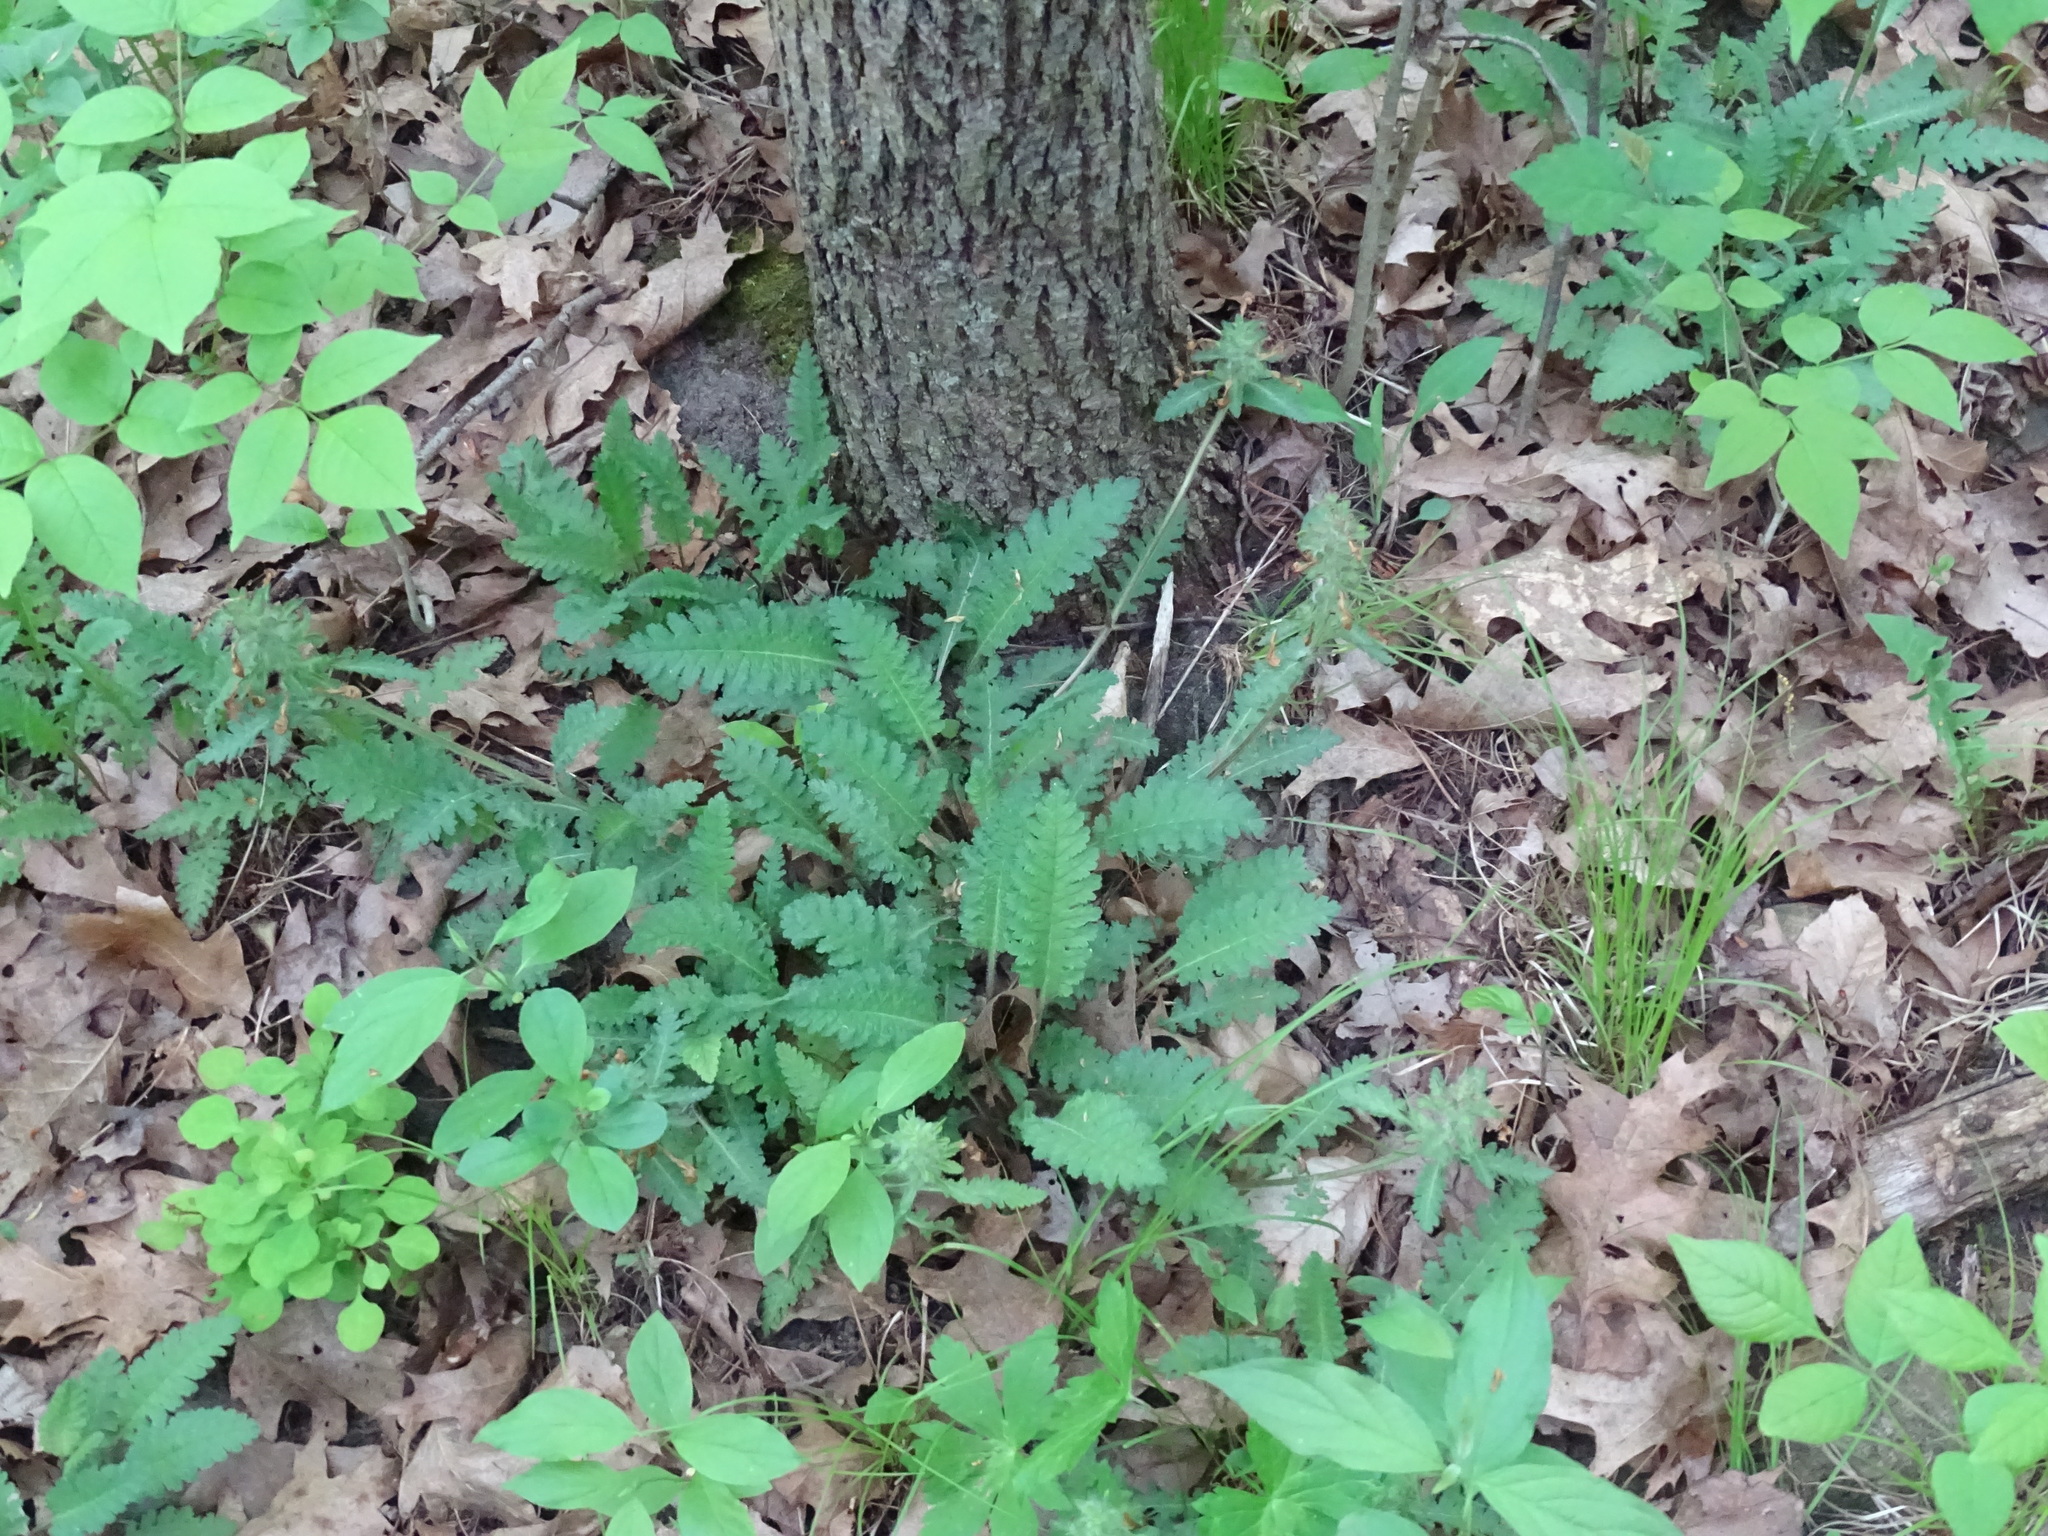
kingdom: Plantae
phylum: Tracheophyta
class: Magnoliopsida
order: Lamiales
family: Orobanchaceae
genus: Pedicularis
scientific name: Pedicularis canadensis
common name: Early lousewort
